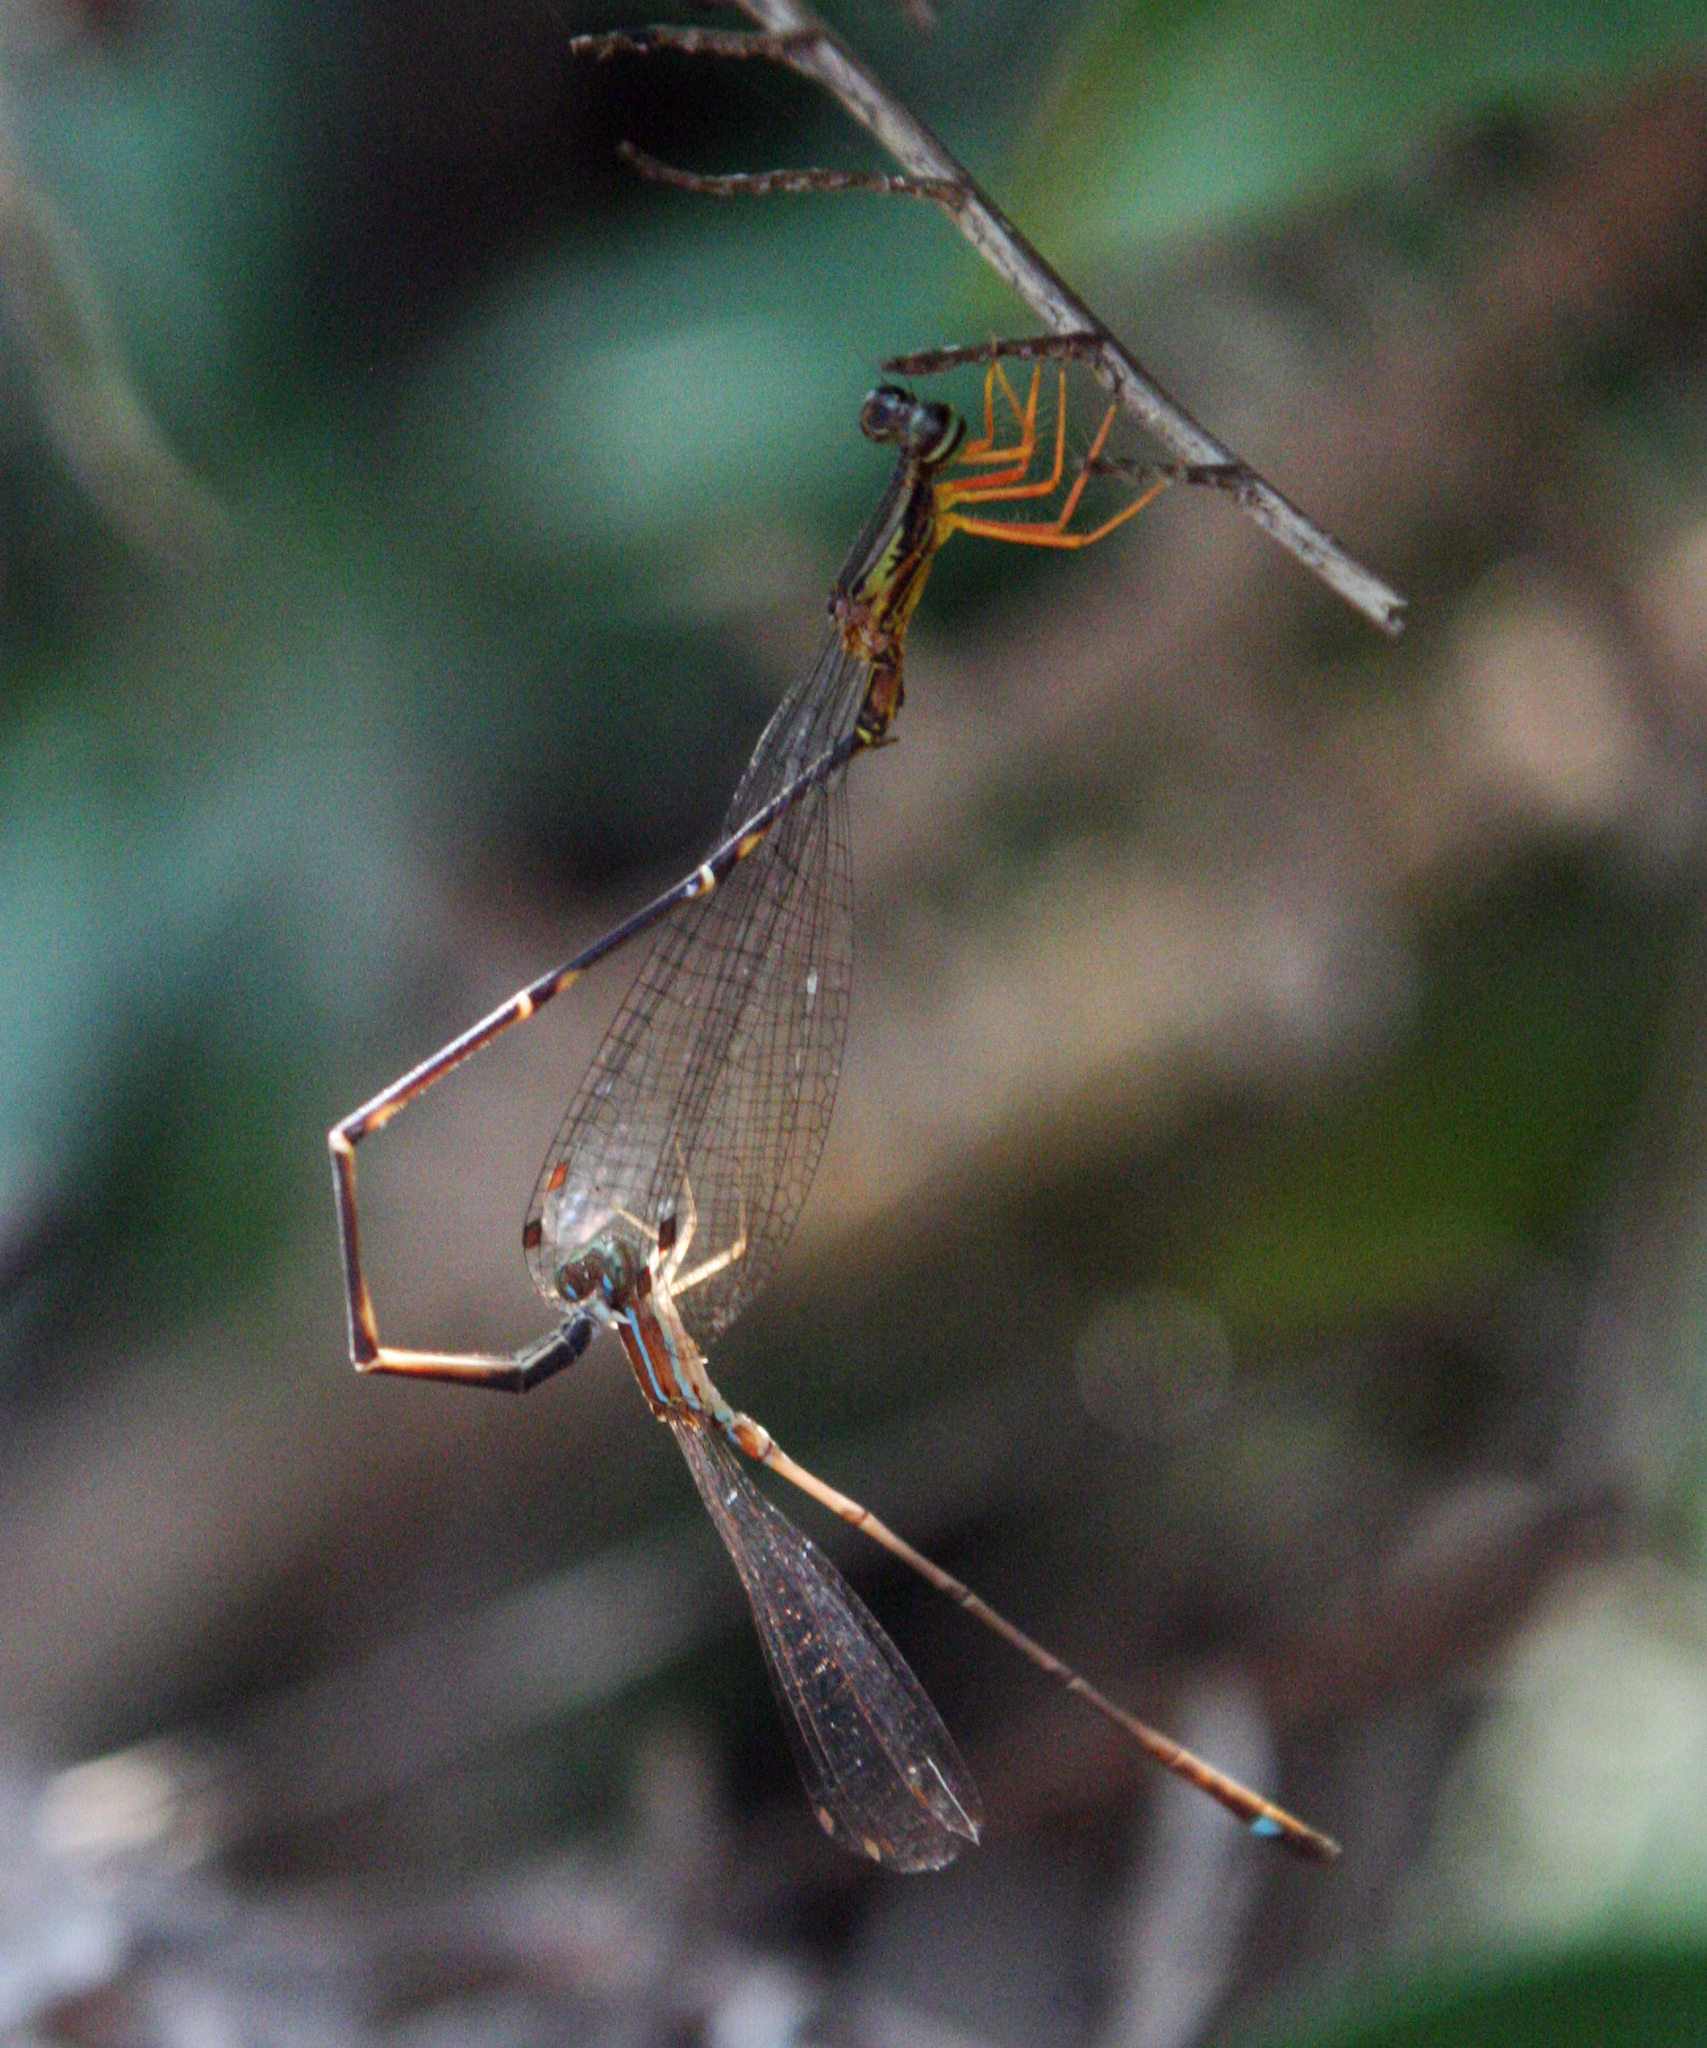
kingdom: Animalia
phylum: Arthropoda
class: Insecta
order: Odonata
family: Platycnemididae
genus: Copera
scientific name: Copera vittata
